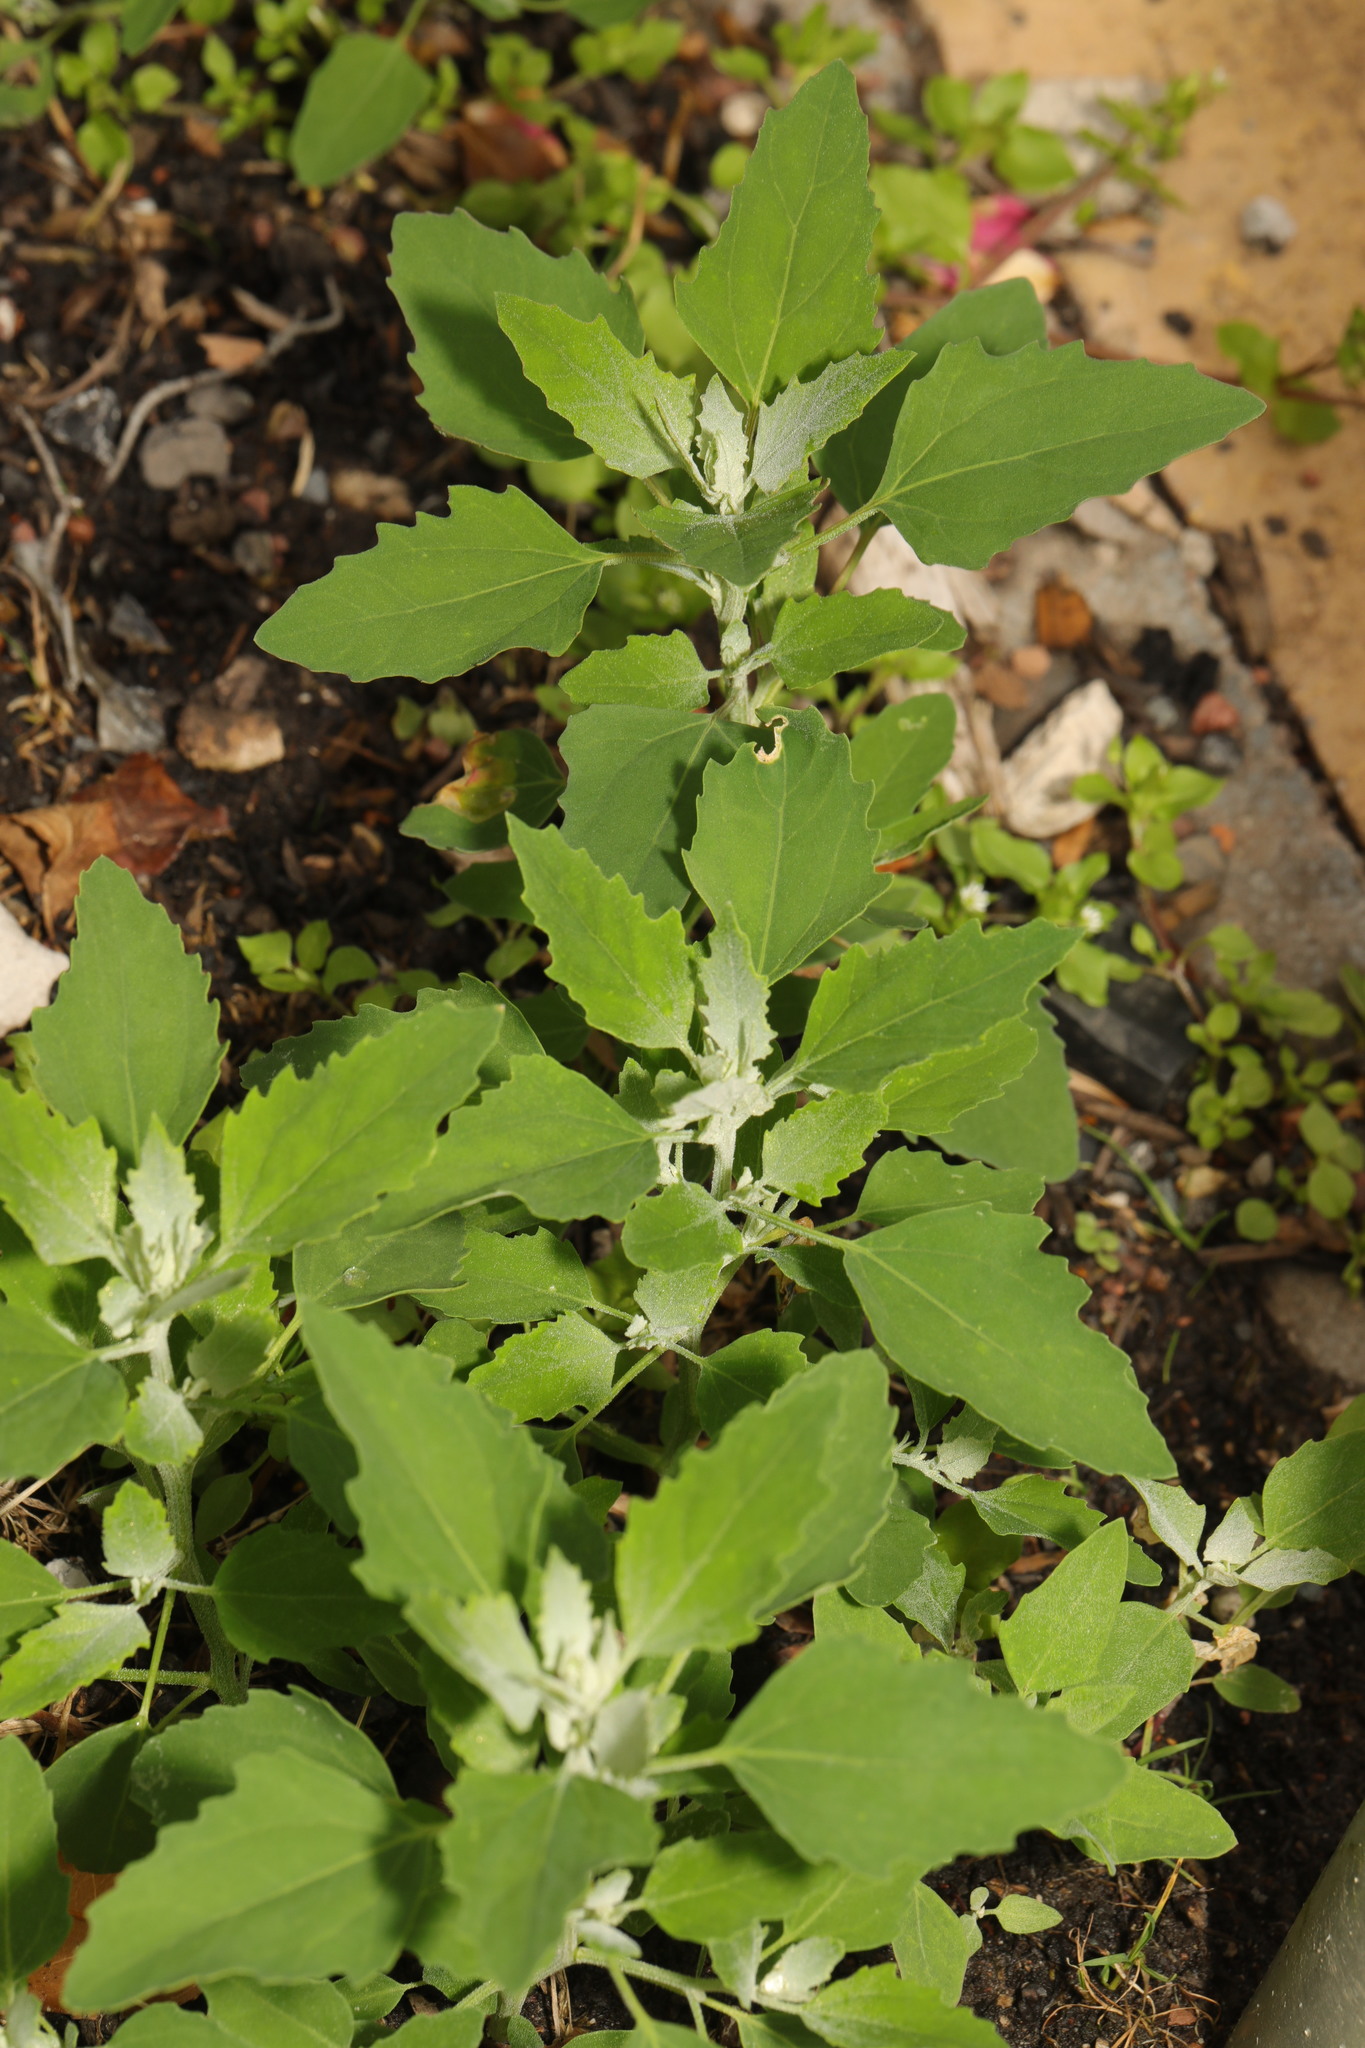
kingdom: Plantae
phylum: Tracheophyta
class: Magnoliopsida
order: Caryophyllales
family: Amaranthaceae
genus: Chenopodium
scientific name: Chenopodium album
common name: Fat-hen
